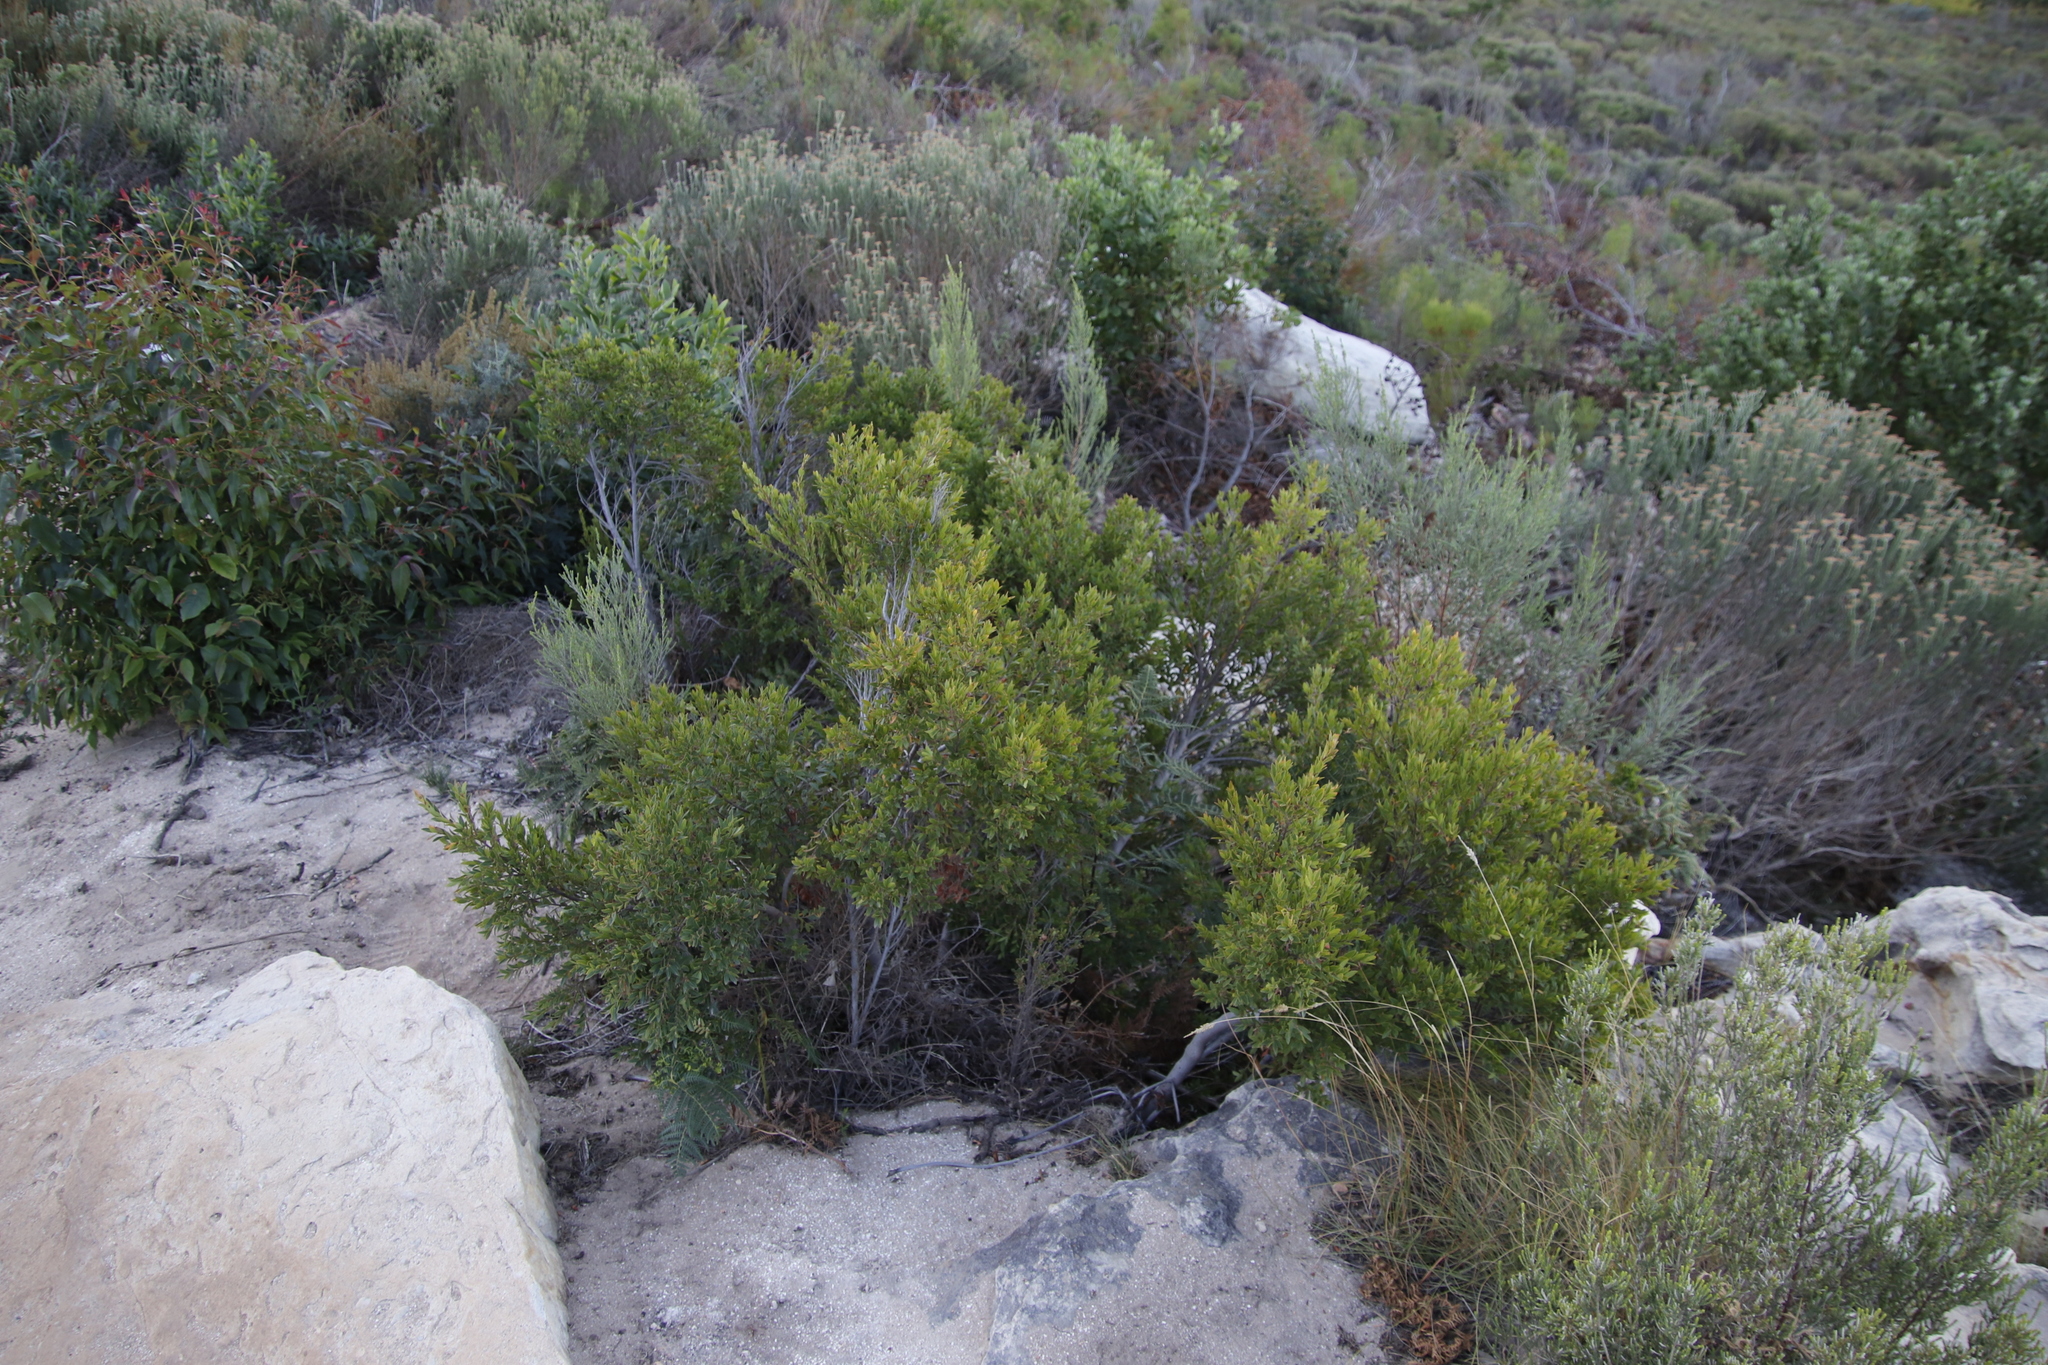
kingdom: Plantae
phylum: Tracheophyta
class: Magnoliopsida
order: Ericales
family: Ebenaceae
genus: Diospyros
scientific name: Diospyros glabra
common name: Fynbos star apple
